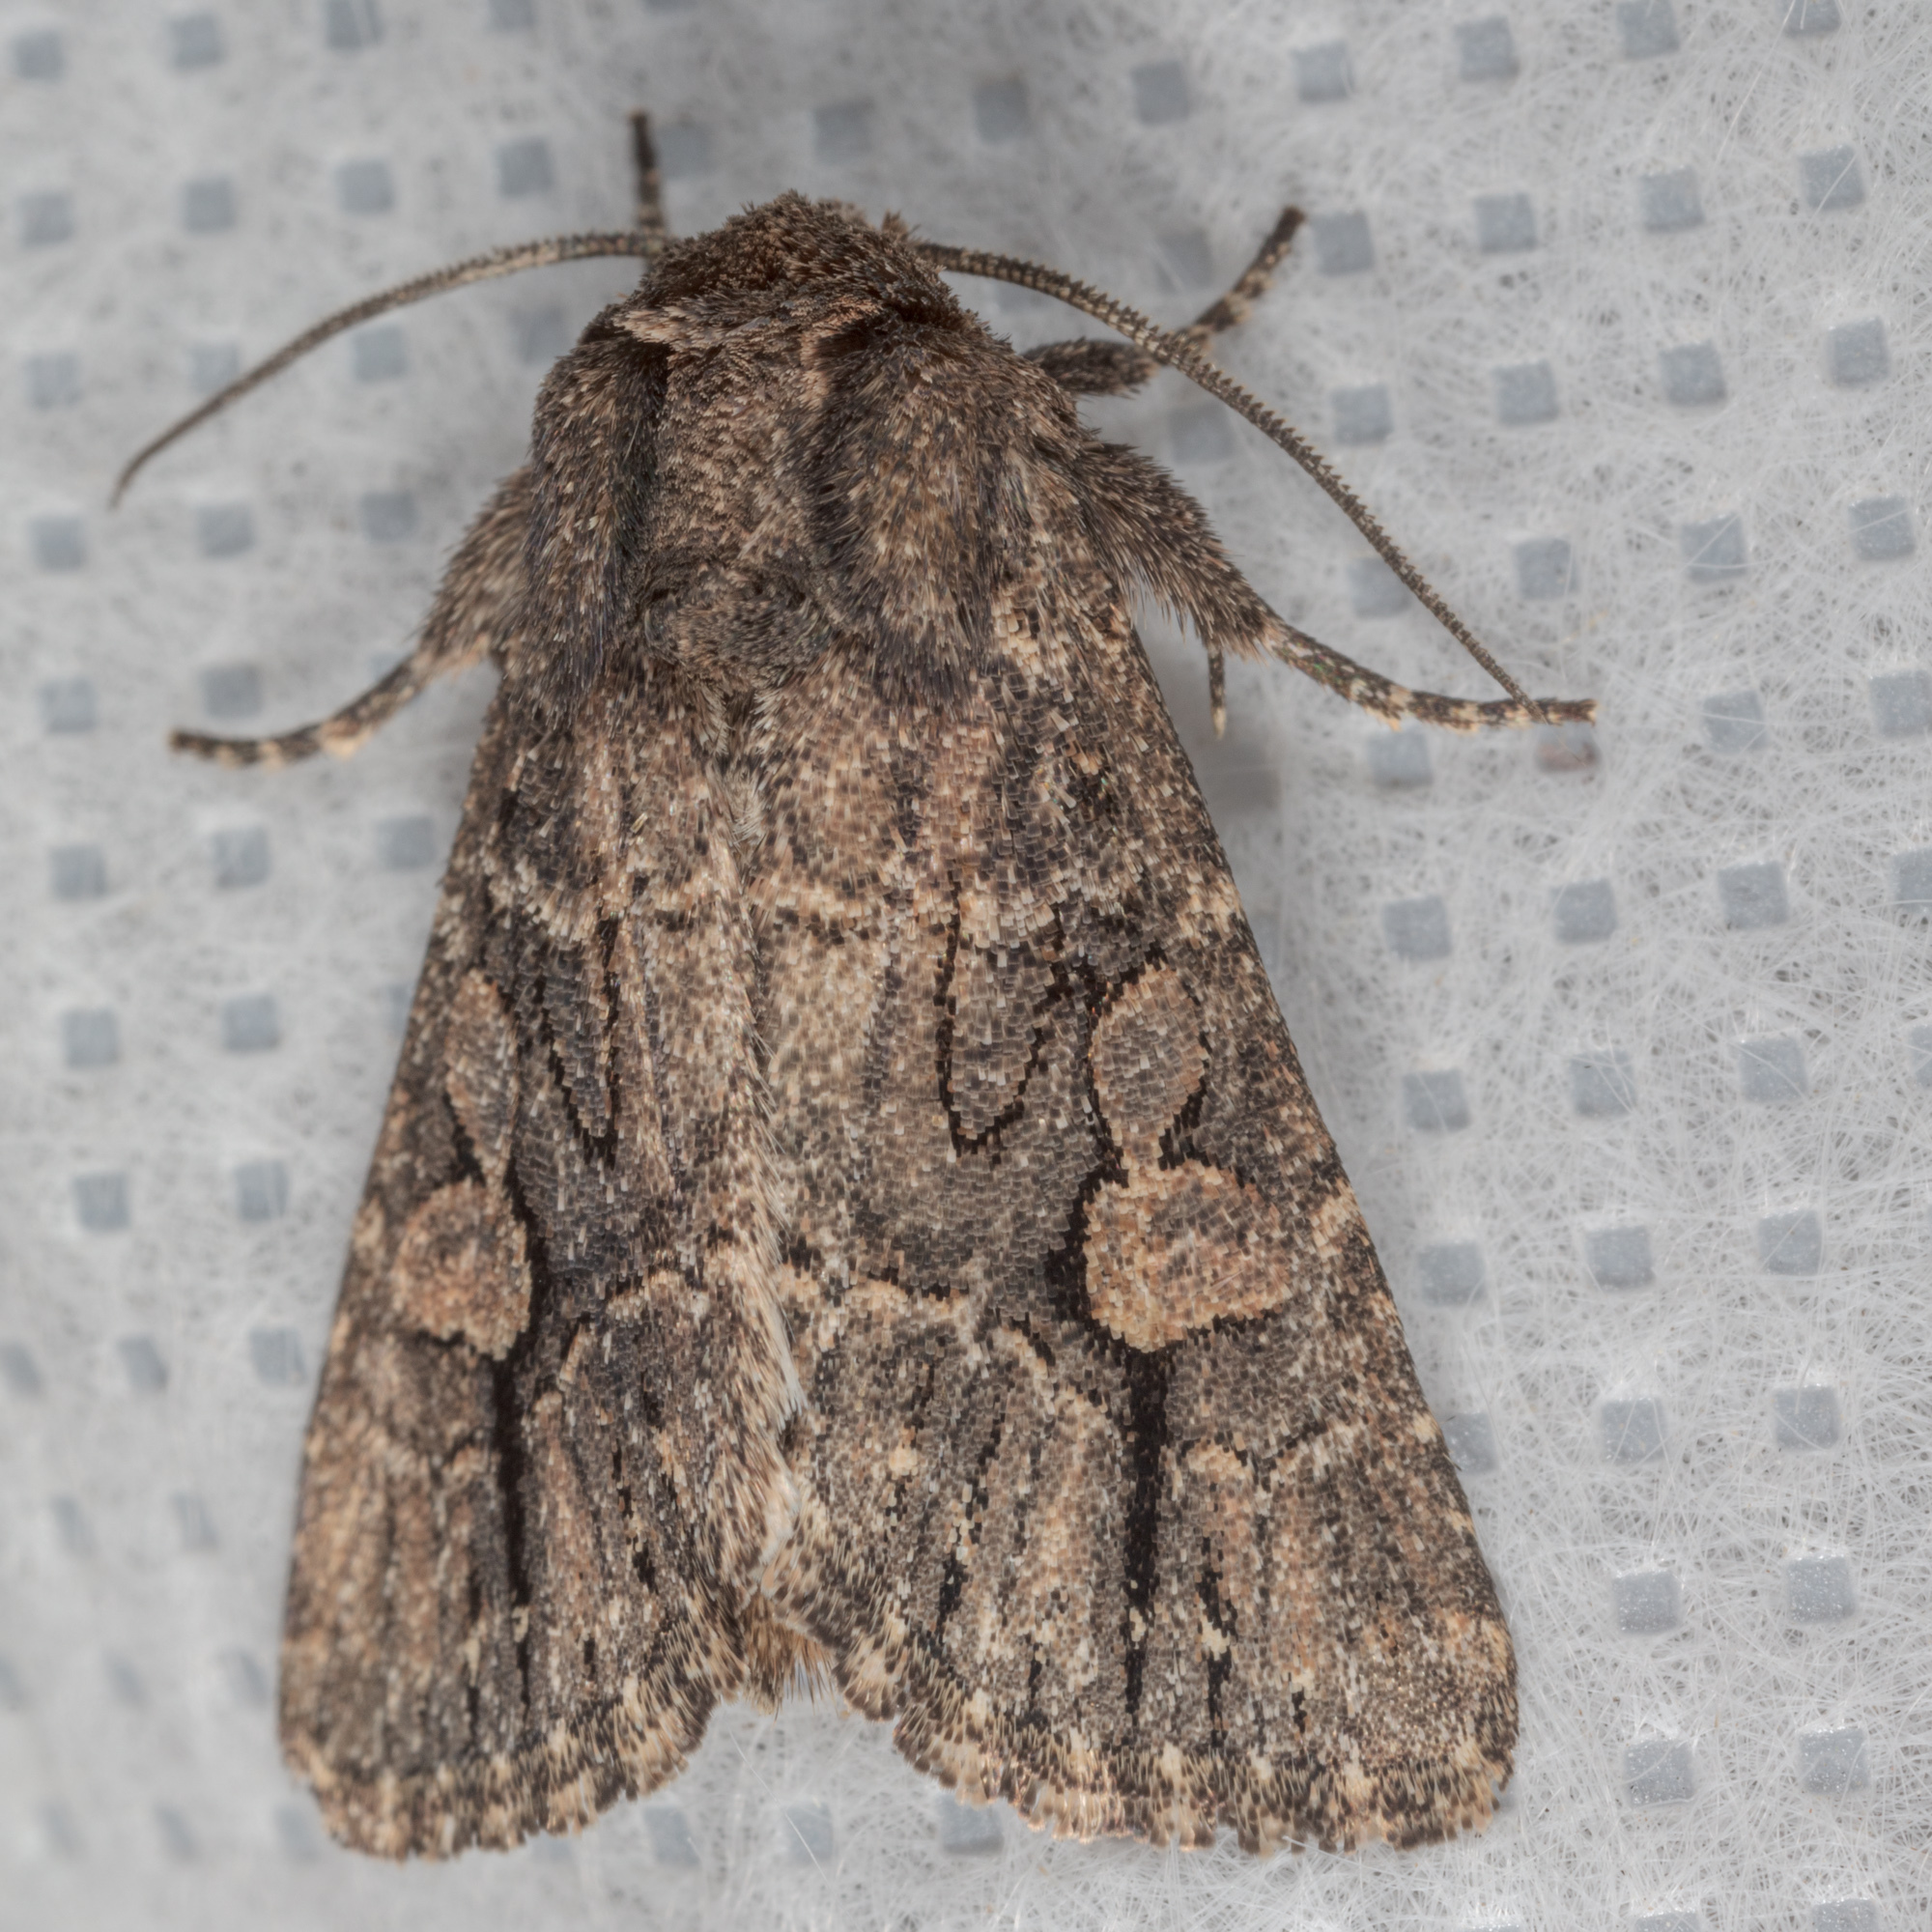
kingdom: Animalia
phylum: Arthropoda
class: Insecta
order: Lepidoptera
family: Noctuidae
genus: Hexorthodes
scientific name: Hexorthodes serrata
